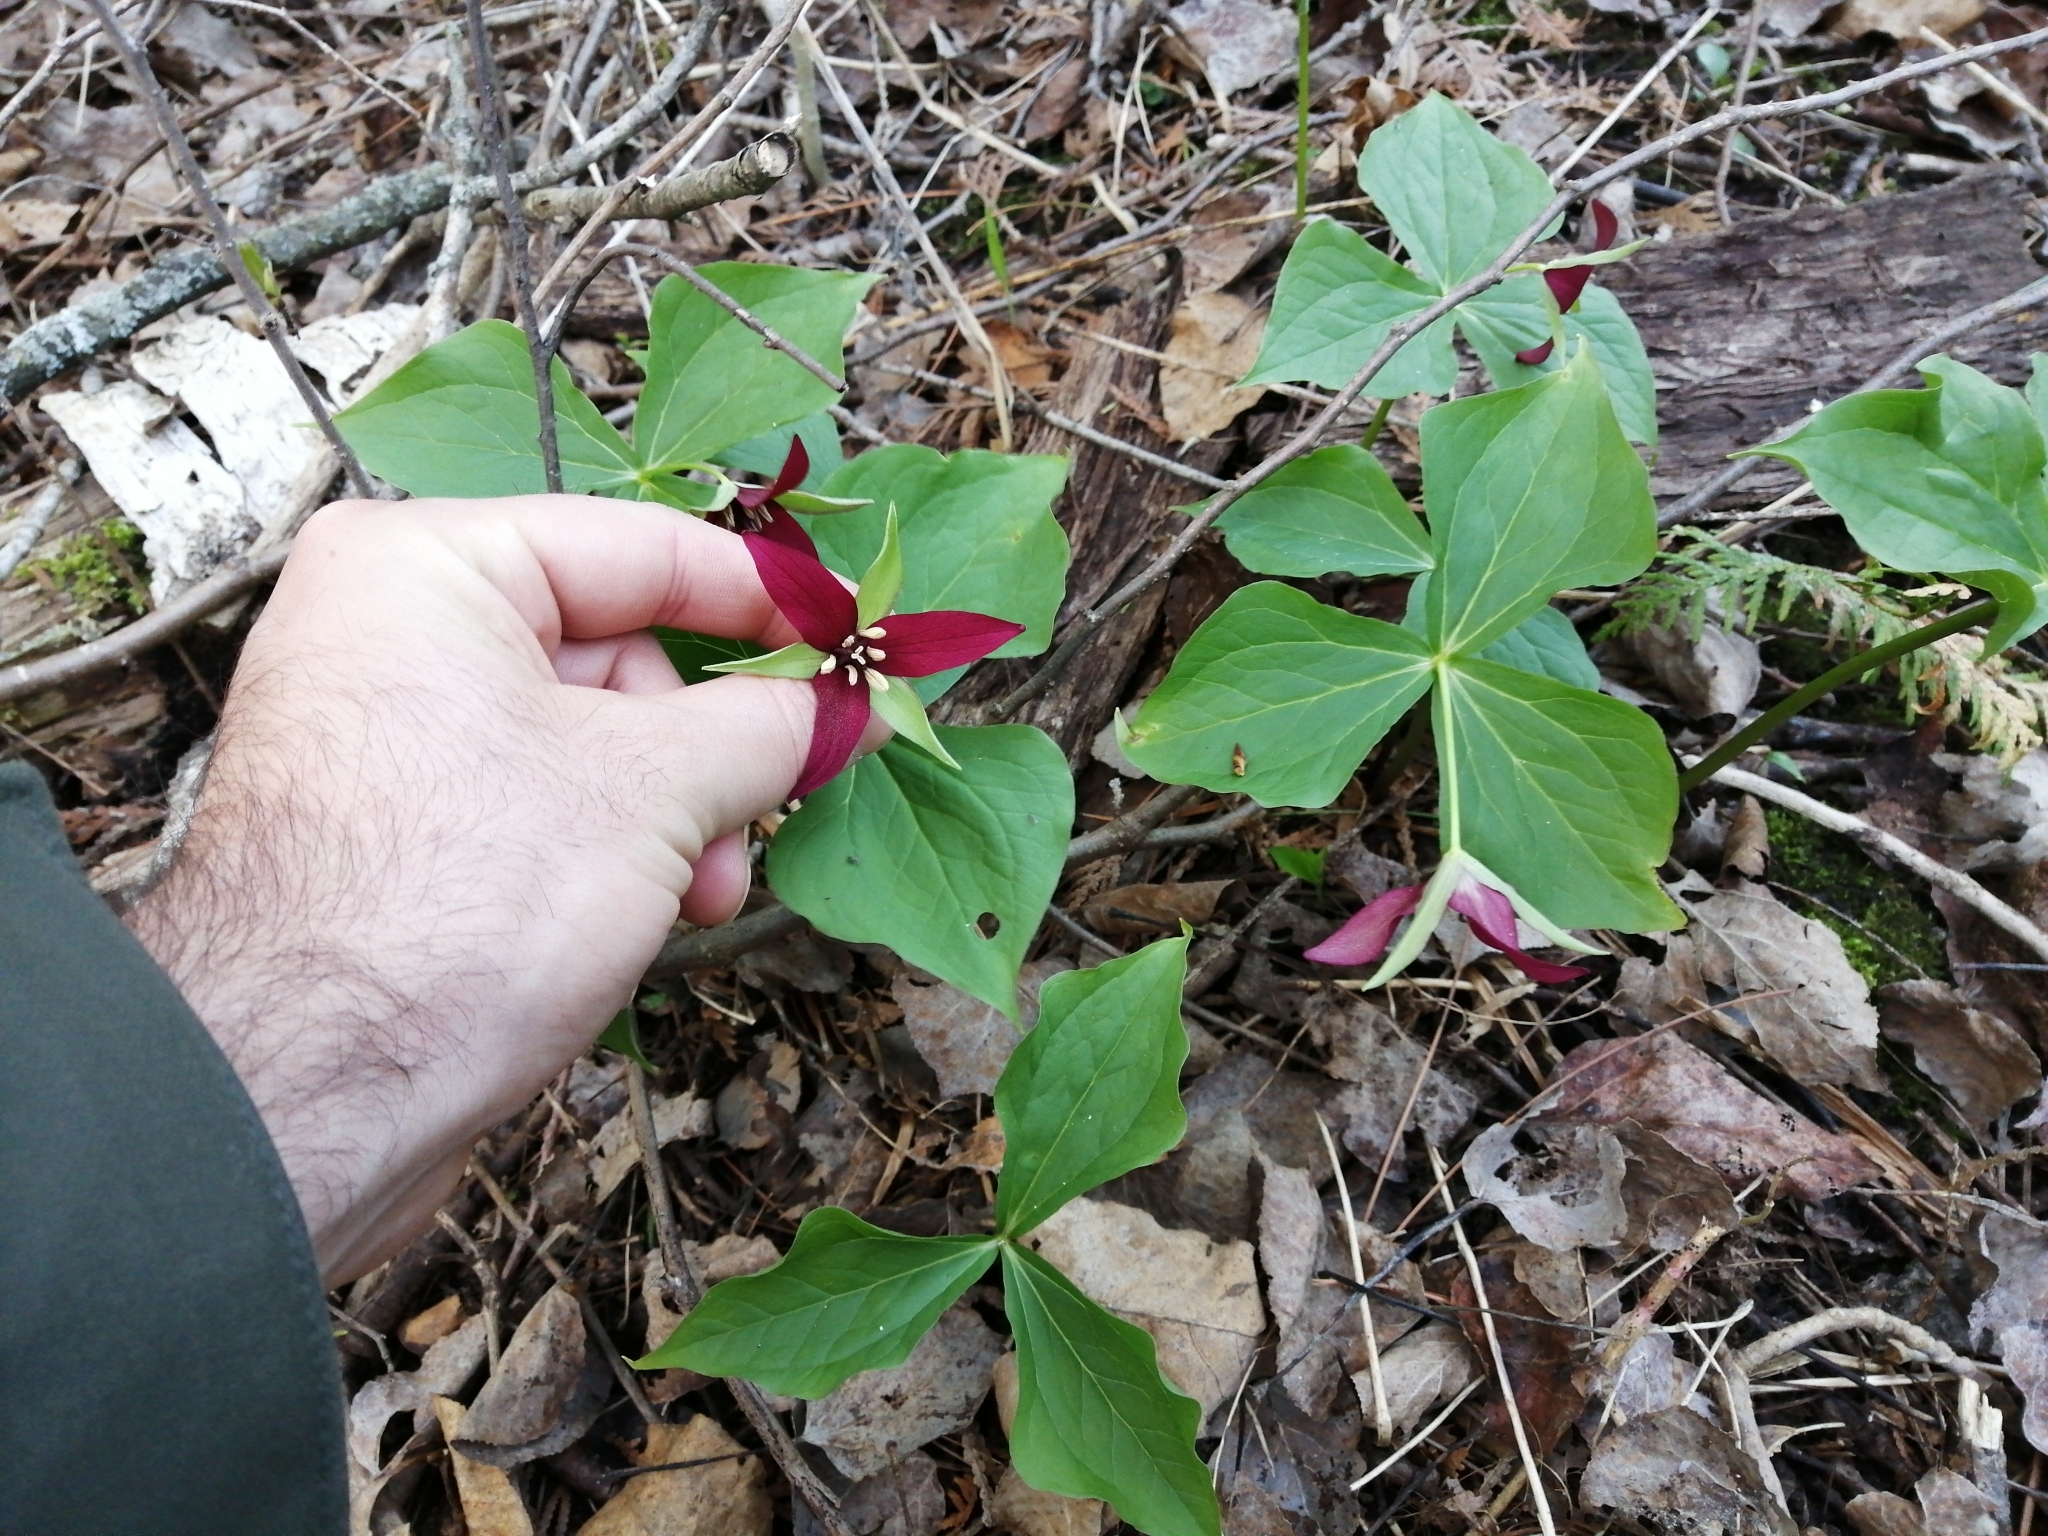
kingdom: Plantae
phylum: Tracheophyta
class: Liliopsida
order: Liliales
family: Melanthiaceae
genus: Trillium
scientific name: Trillium erectum
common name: Purple trillium
